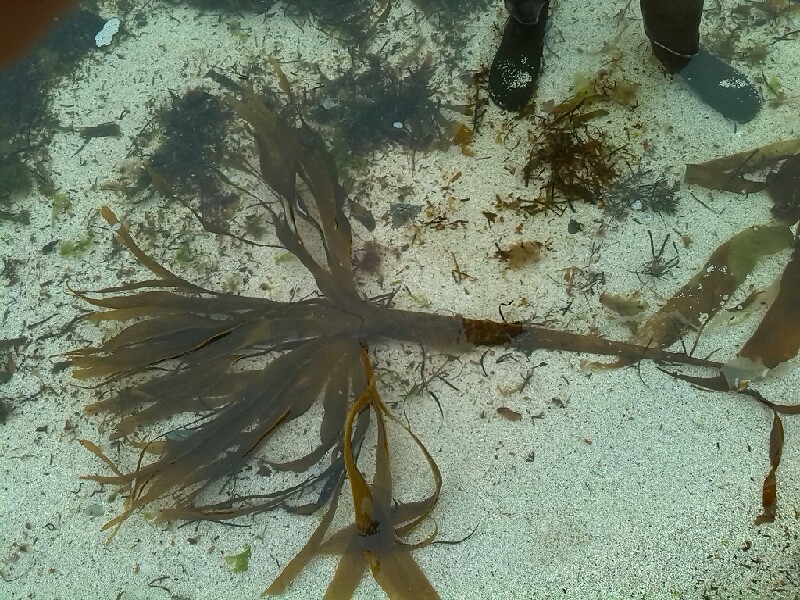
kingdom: Chromista
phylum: Ochrophyta
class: Phaeophyceae
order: Tilopteridales
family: Phyllariaceae
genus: Saccorhiza
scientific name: Saccorhiza polyschides
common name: Furbelows
